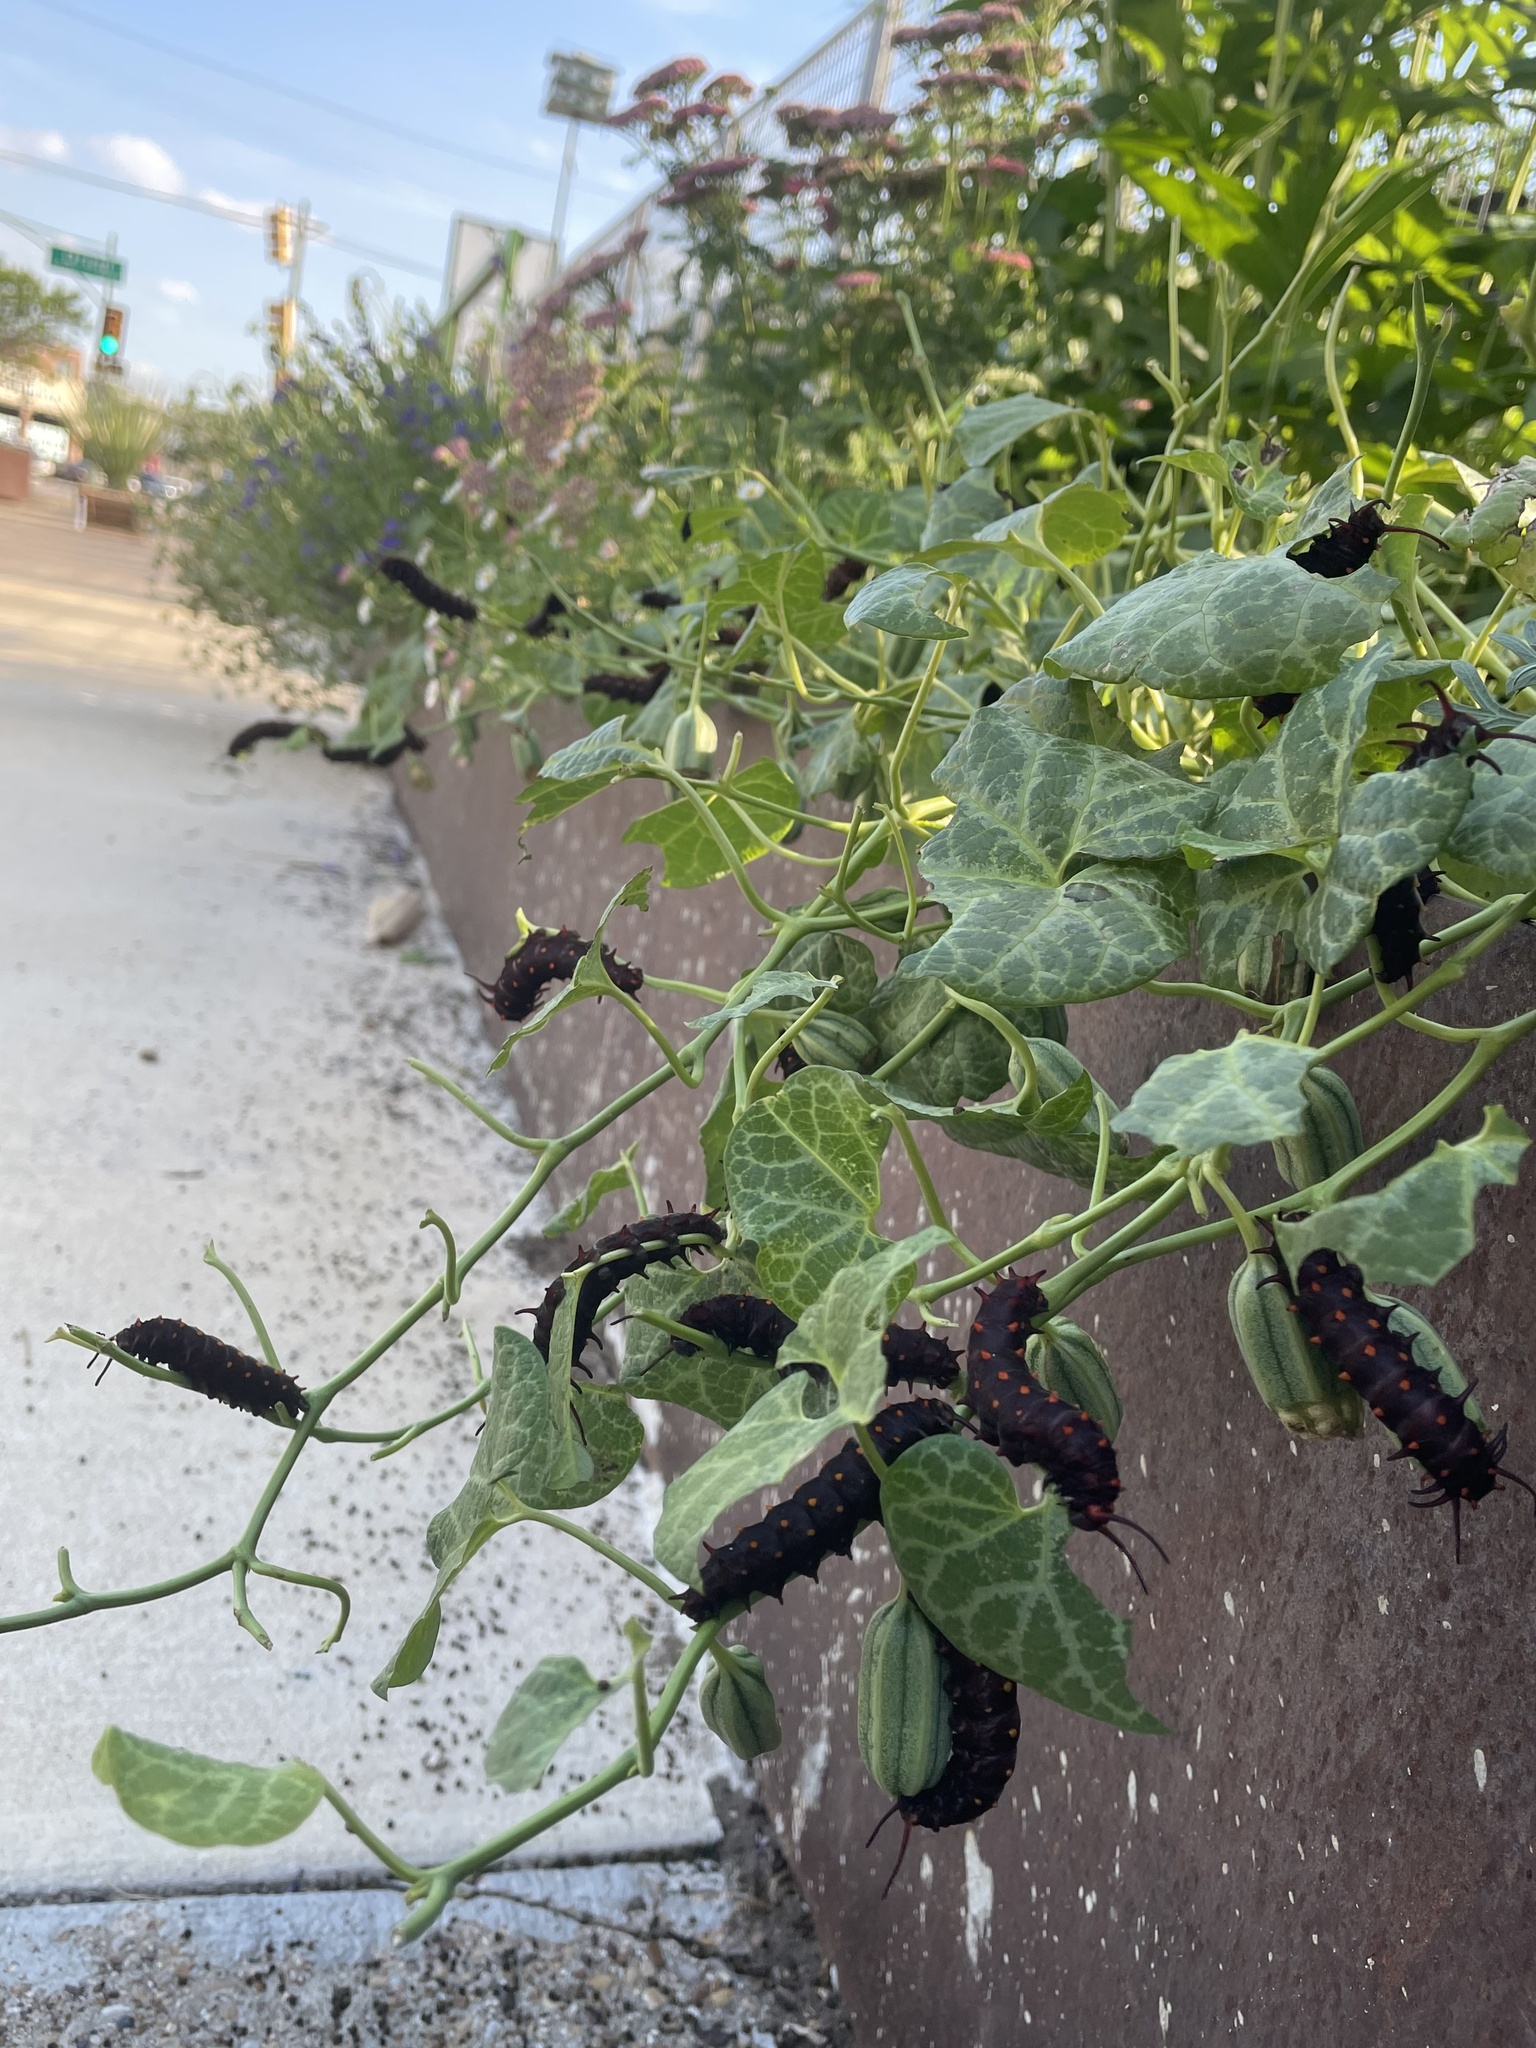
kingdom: Animalia
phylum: Arthropoda
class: Insecta
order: Lepidoptera
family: Papilionidae
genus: Battus
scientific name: Battus philenor
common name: Pipevine swallowtail
